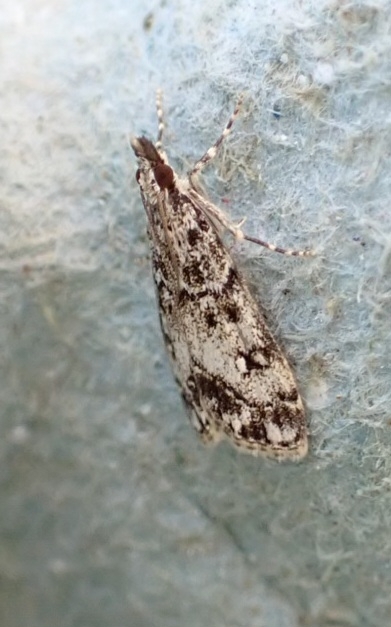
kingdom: Animalia
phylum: Arthropoda
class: Insecta
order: Lepidoptera
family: Crambidae
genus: Eudonia
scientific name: Eudonia lacustrata
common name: Little grey
